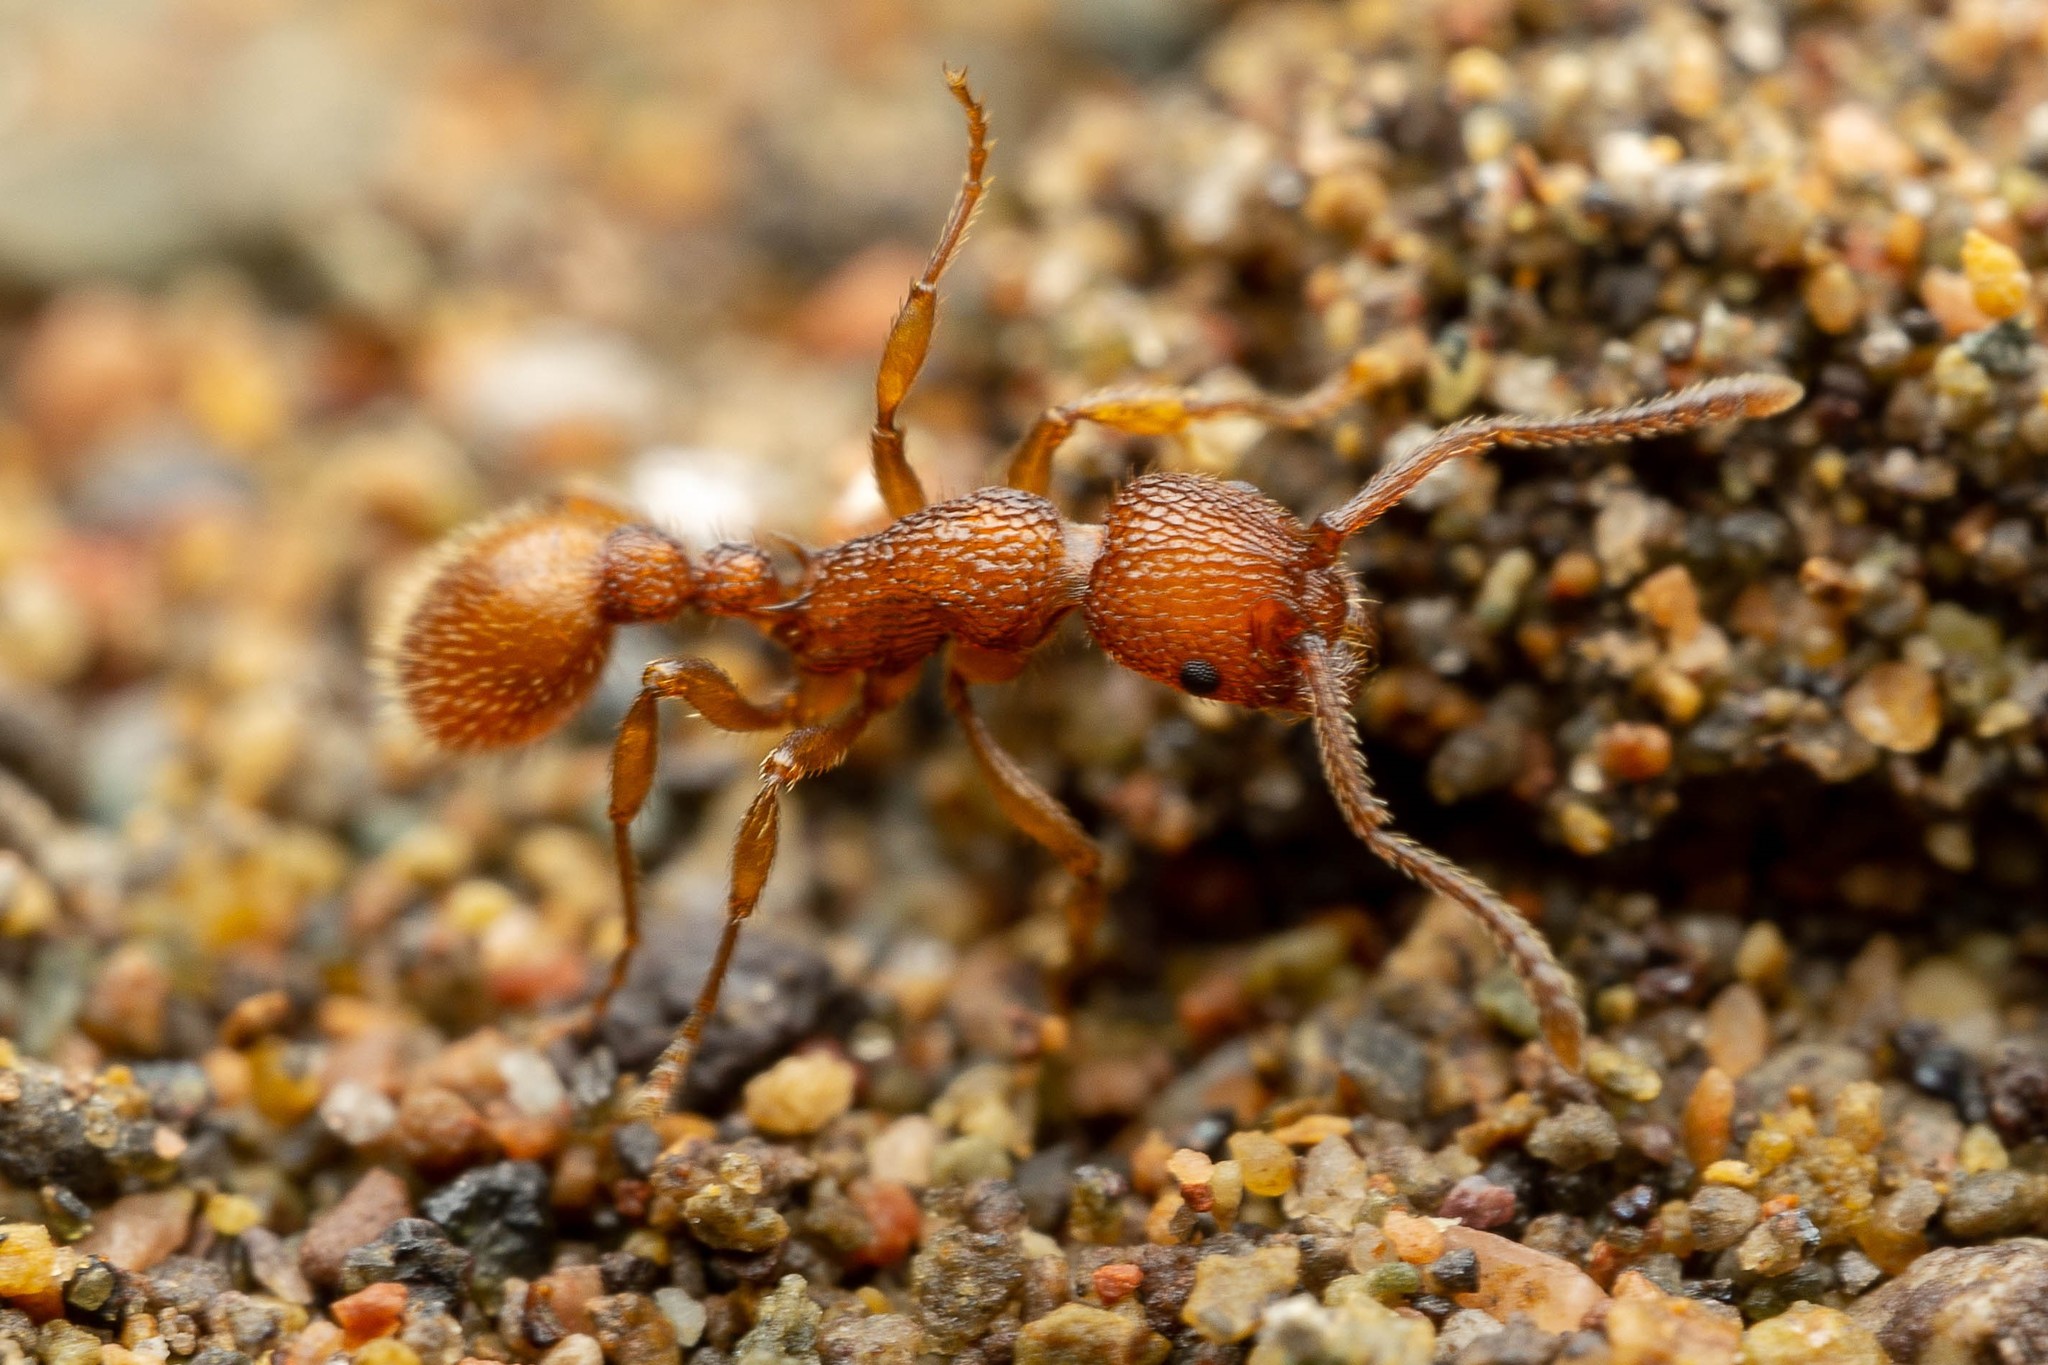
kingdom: Animalia
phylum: Arthropoda
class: Insecta
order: Hymenoptera
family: Formicidae
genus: Myrmica
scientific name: Myrmica striolagaster
